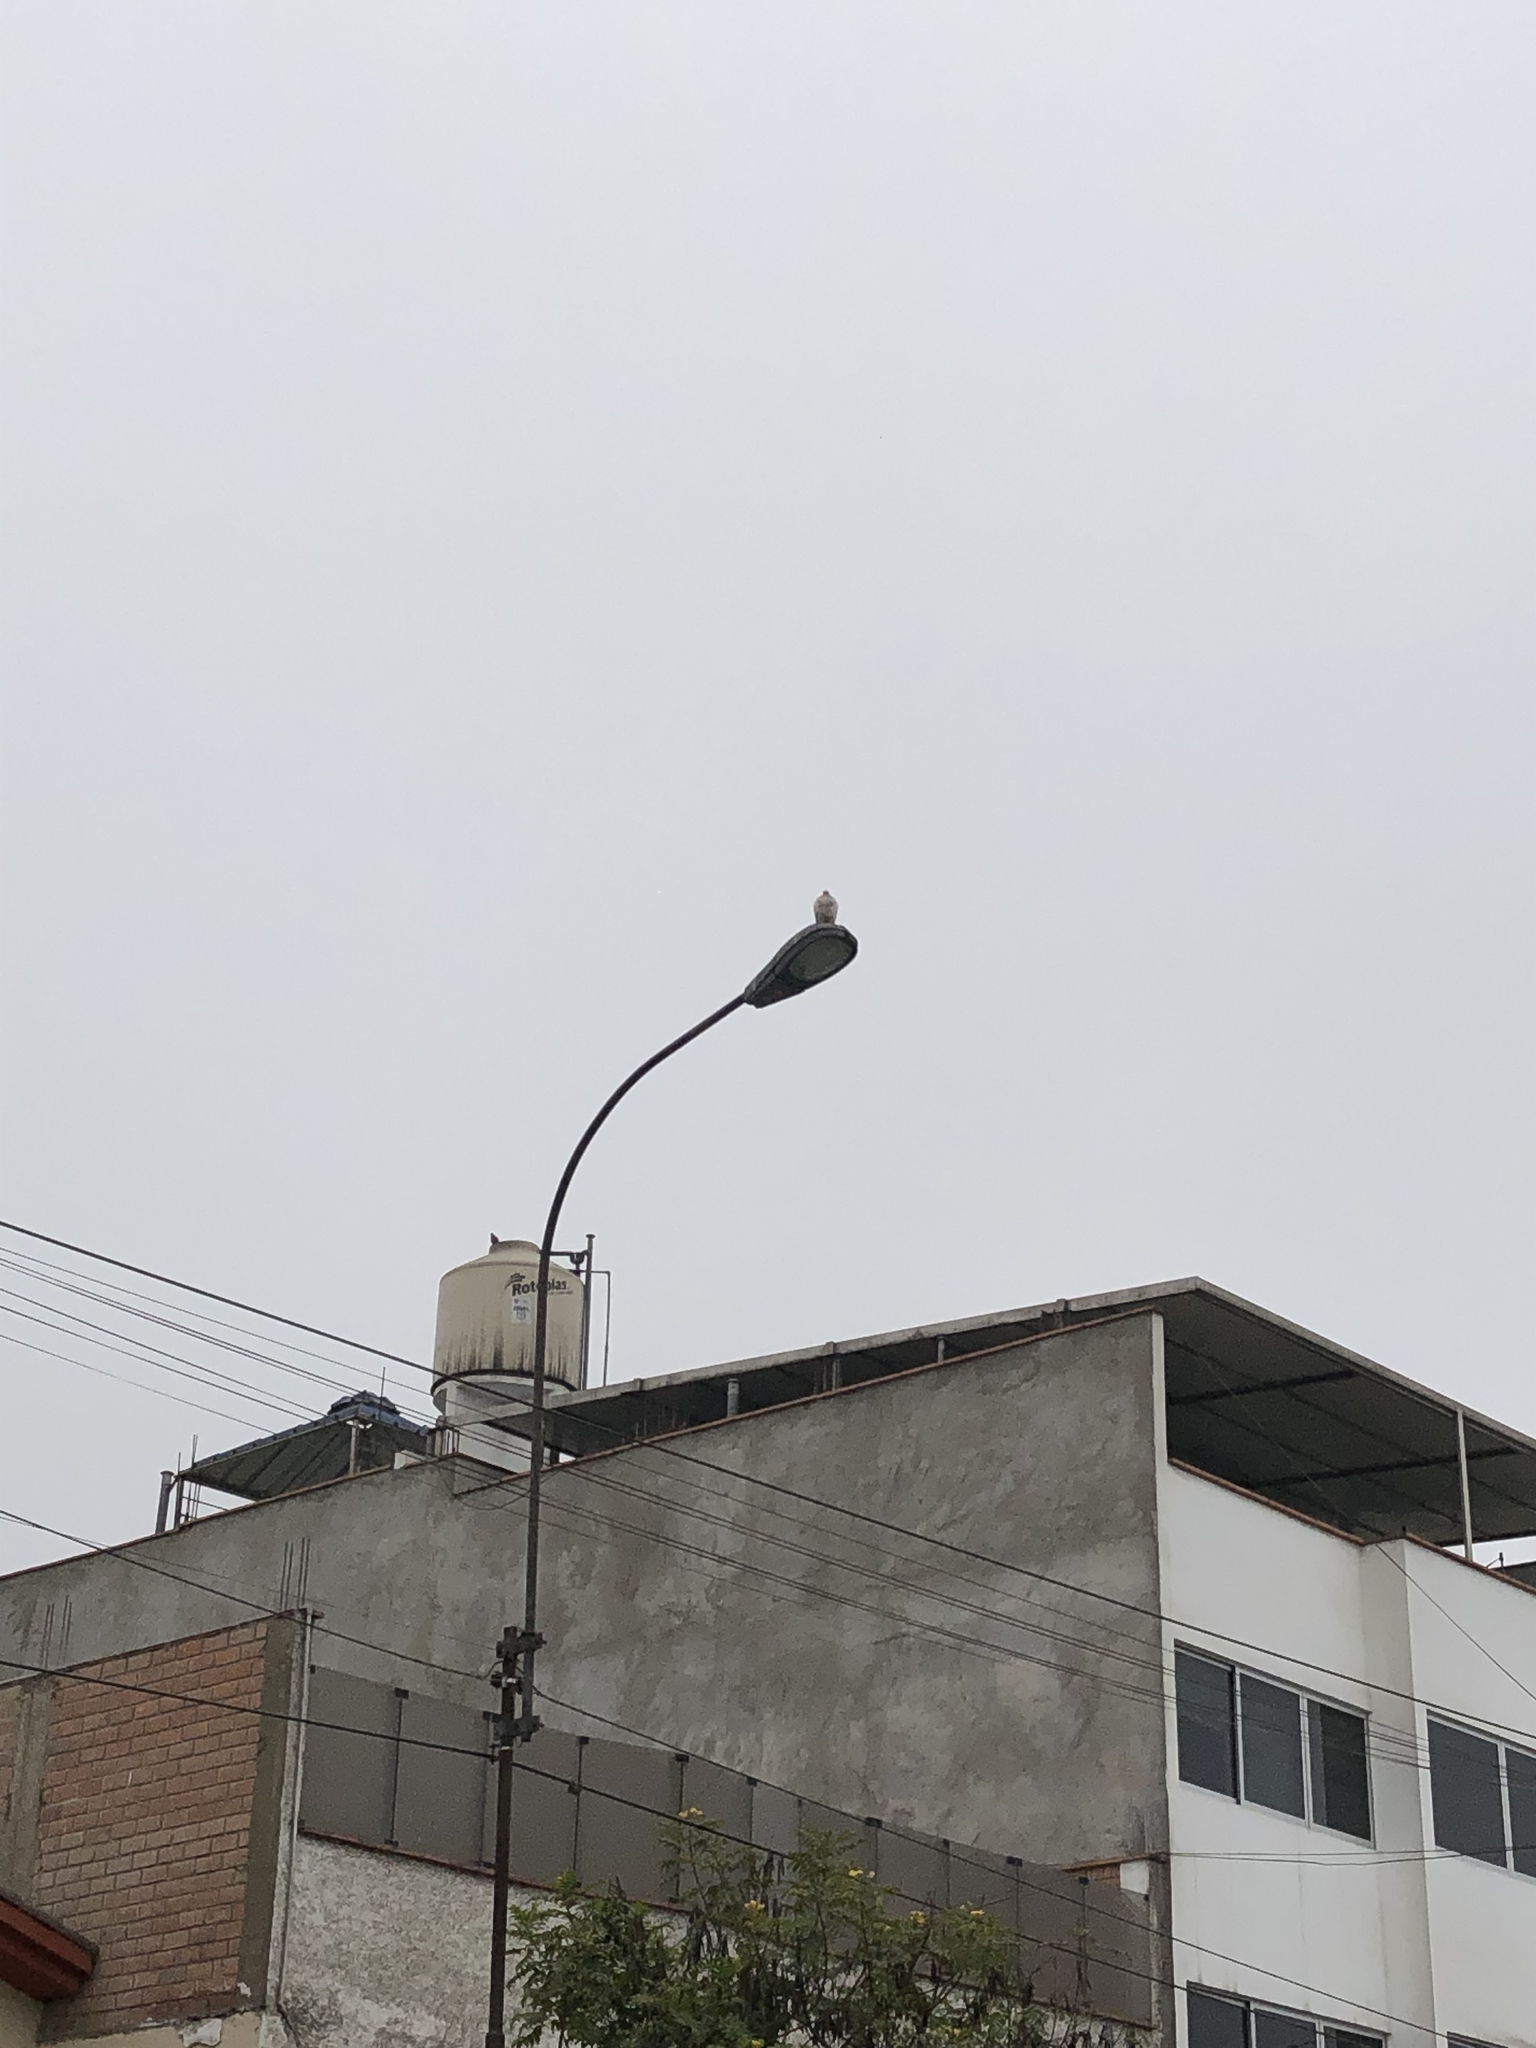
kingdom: Animalia
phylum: Chordata
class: Aves
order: Columbiformes
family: Columbidae
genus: Columba
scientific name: Columba livia
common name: Rock pigeon
